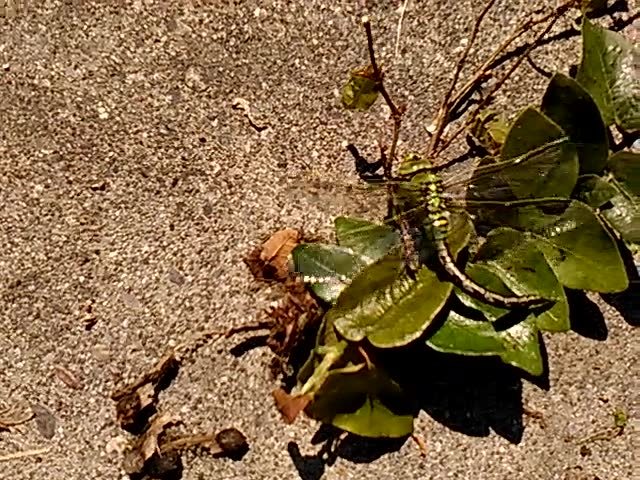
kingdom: Animalia
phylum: Arthropoda
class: Insecta
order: Odonata
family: Aeshnidae
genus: Anax
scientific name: Anax imperator
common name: Emperor dragonfly
